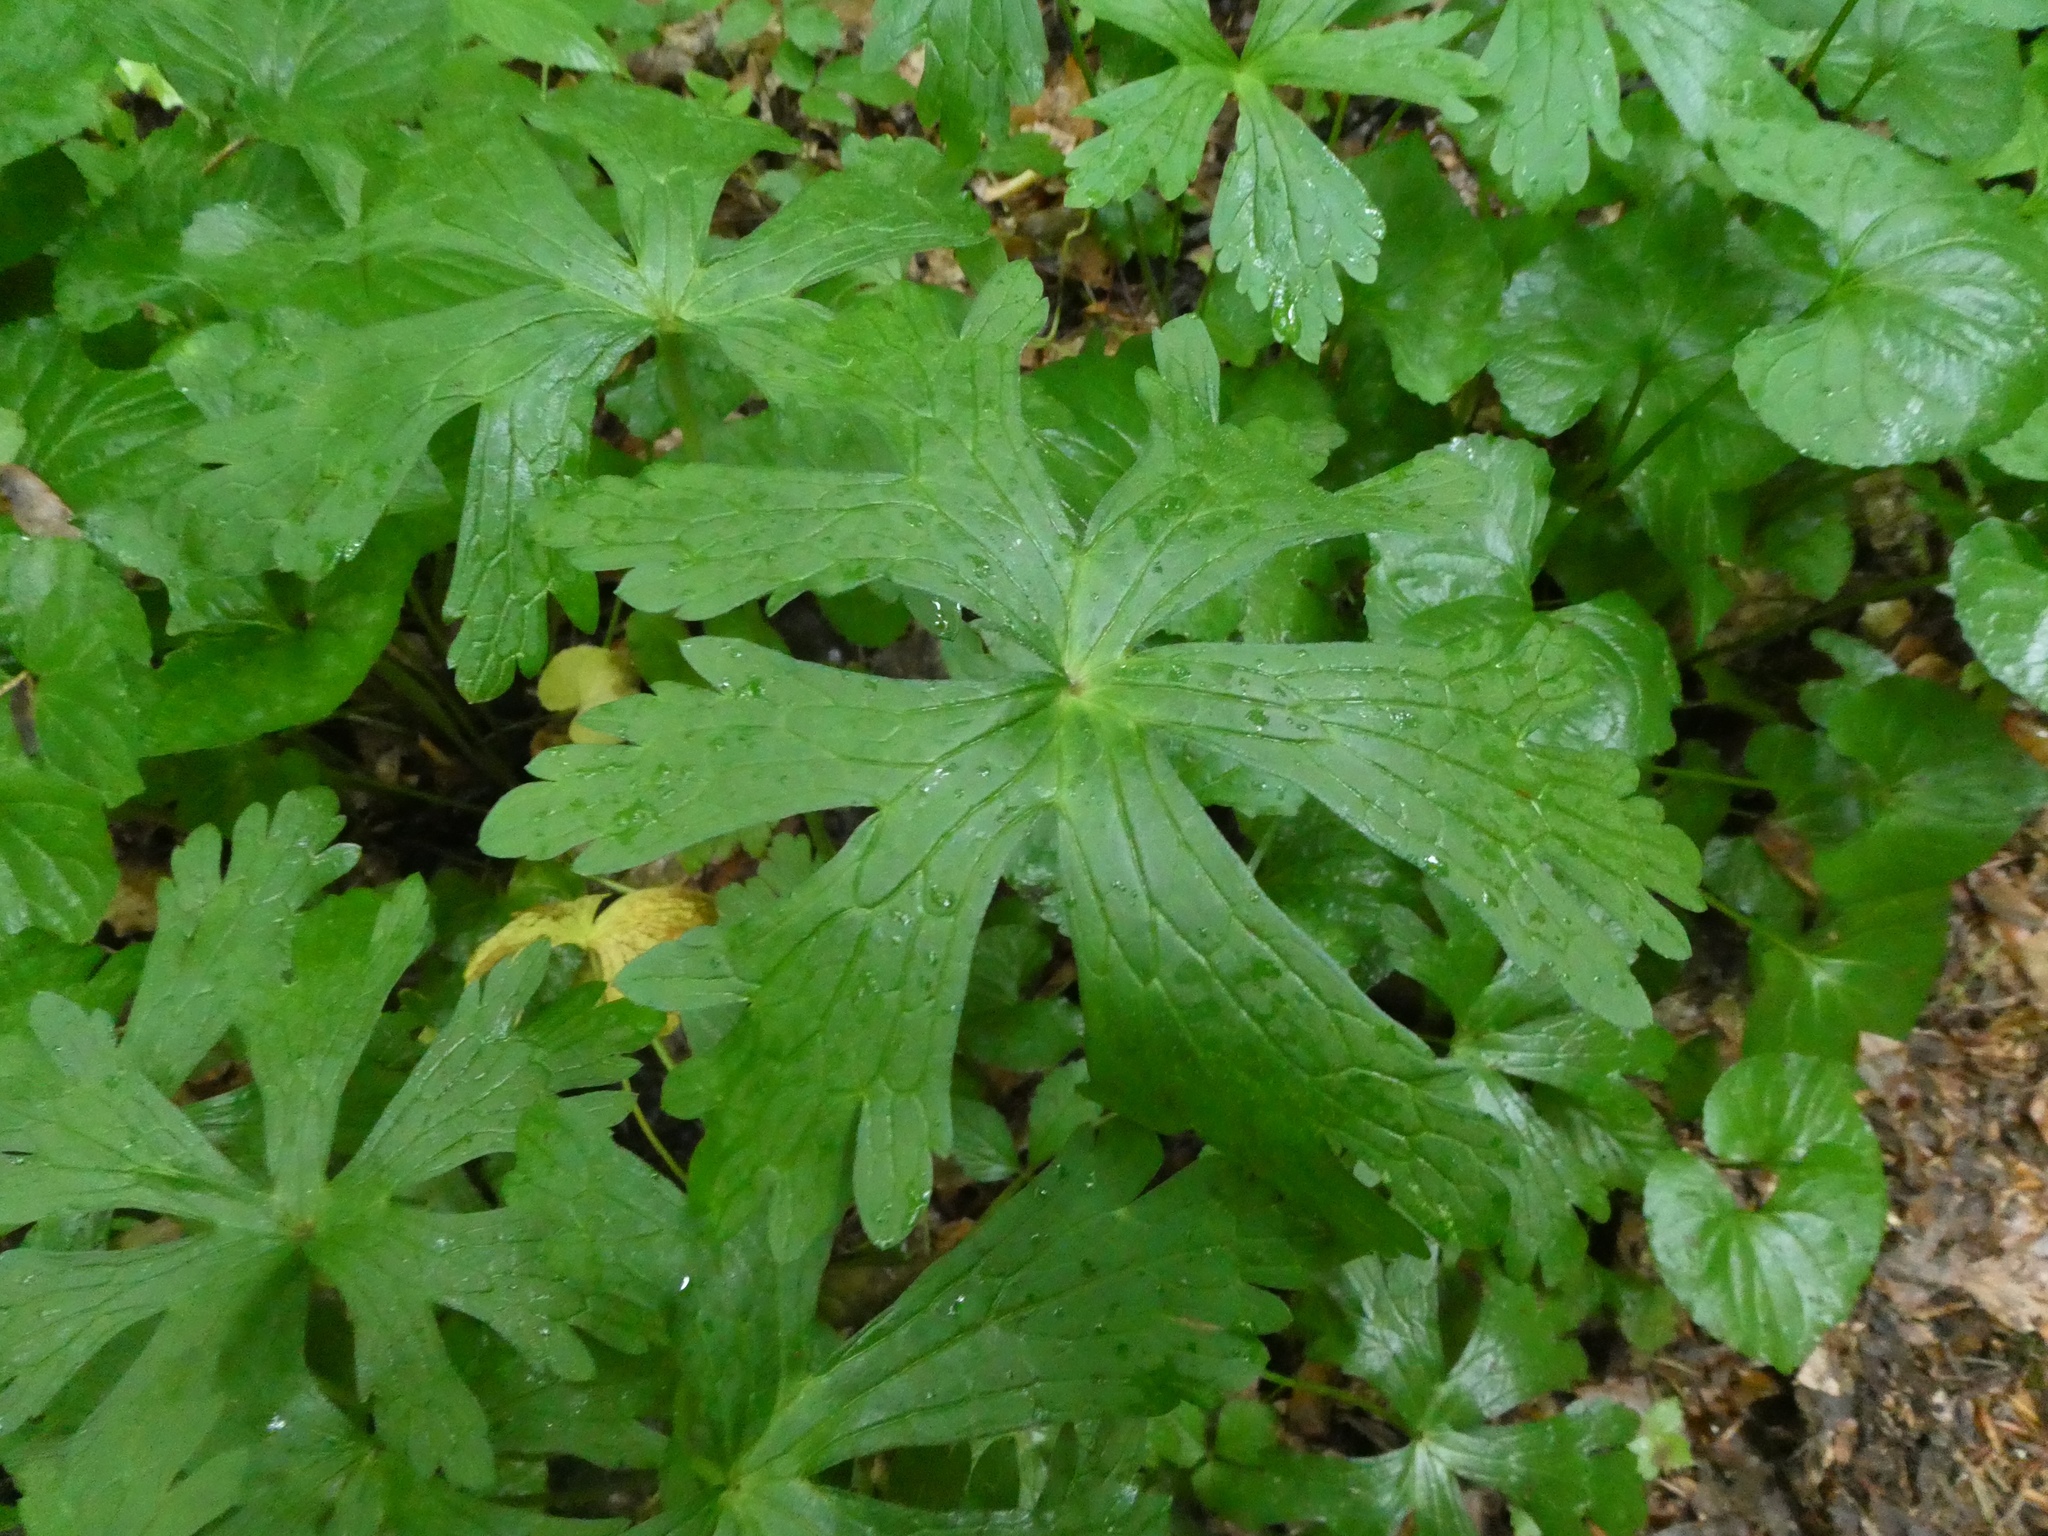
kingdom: Plantae
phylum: Tracheophyta
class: Magnoliopsida
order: Geraniales
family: Geraniaceae
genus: Geranium
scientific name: Geranium maculatum
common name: Spotted geranium
